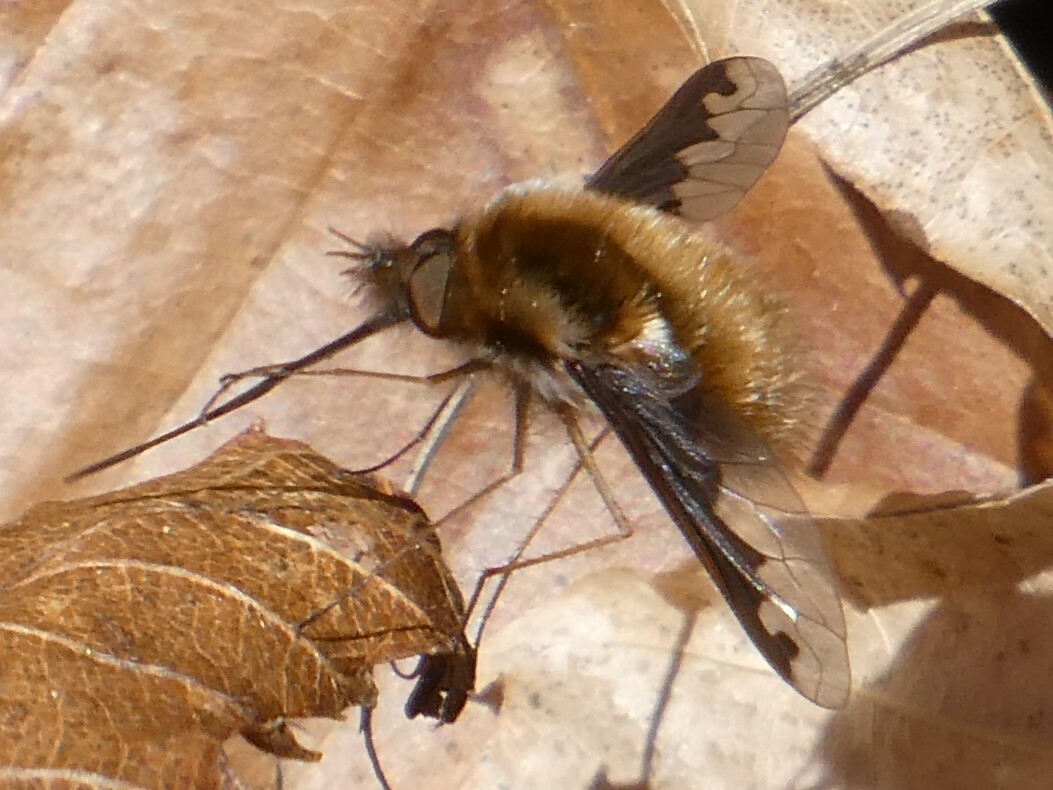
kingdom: Animalia
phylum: Arthropoda
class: Insecta
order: Diptera
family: Bombyliidae
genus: Bombylius
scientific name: Bombylius major
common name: Bee fly
